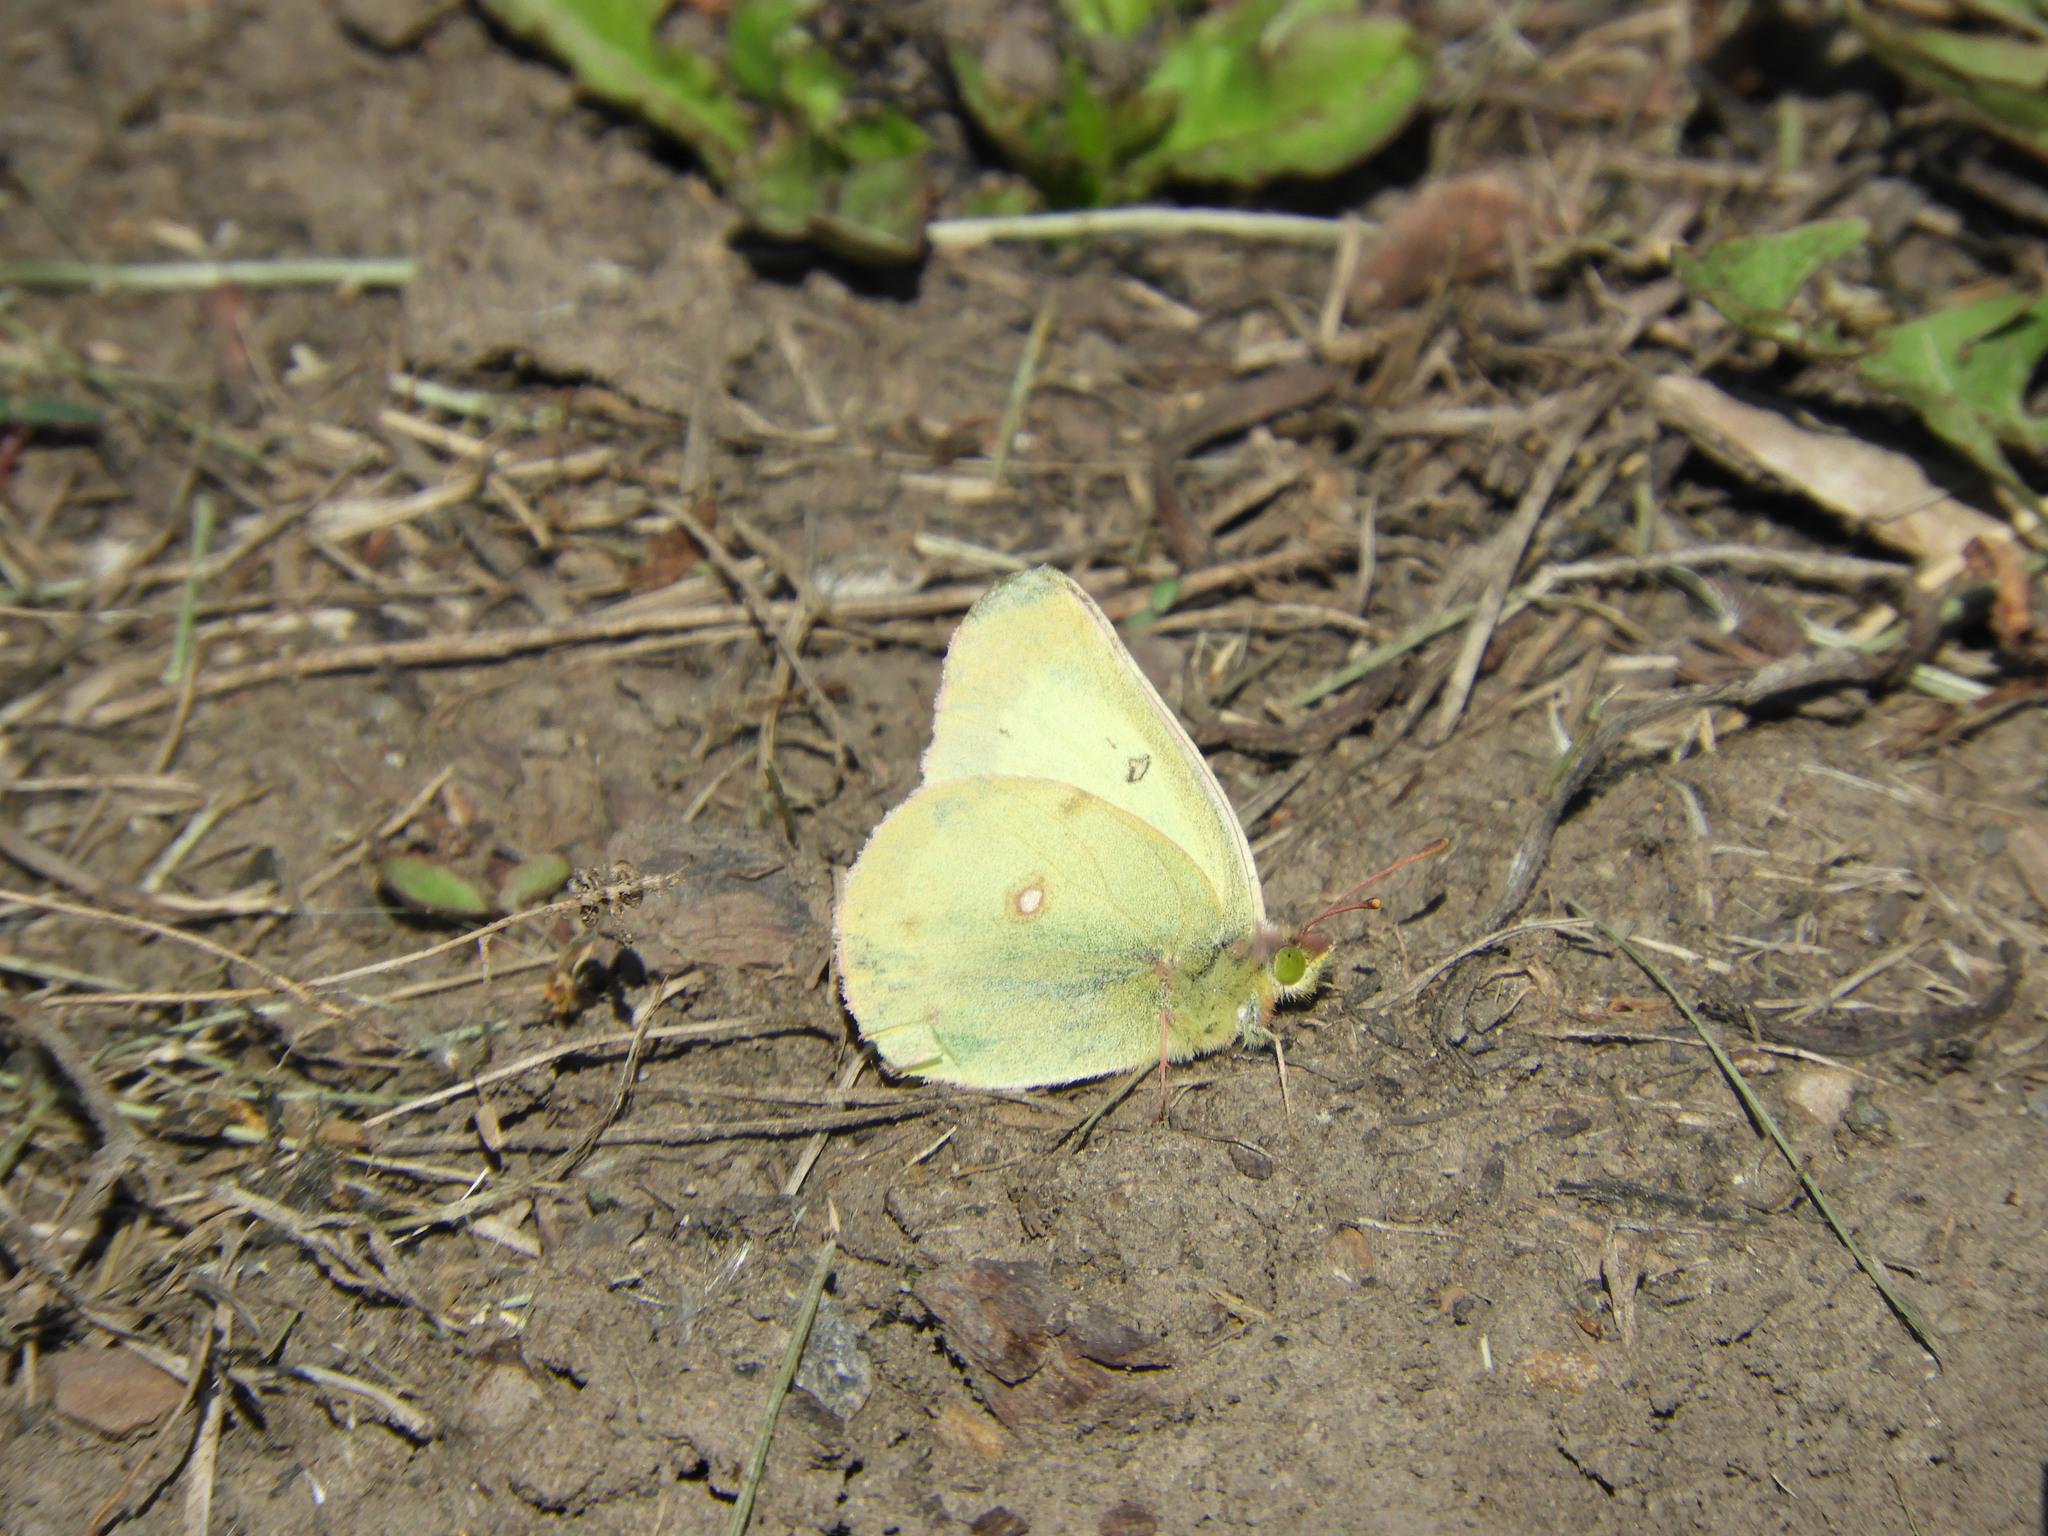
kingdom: Animalia
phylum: Arthropoda
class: Insecta
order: Lepidoptera
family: Pieridae
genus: Colias
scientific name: Colias philodice
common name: Clouded sulphur
